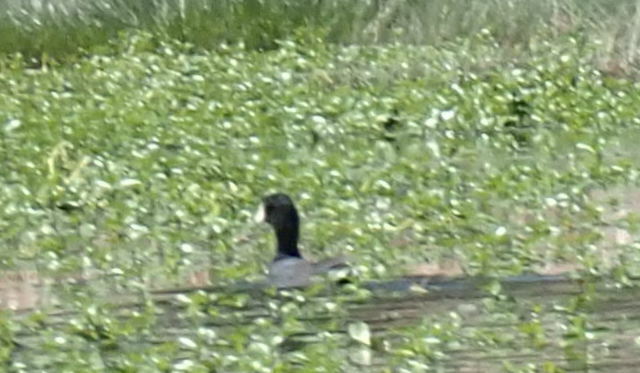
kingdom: Animalia
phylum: Chordata
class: Aves
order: Gruiformes
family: Rallidae
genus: Fulica
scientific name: Fulica americana
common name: American coot
